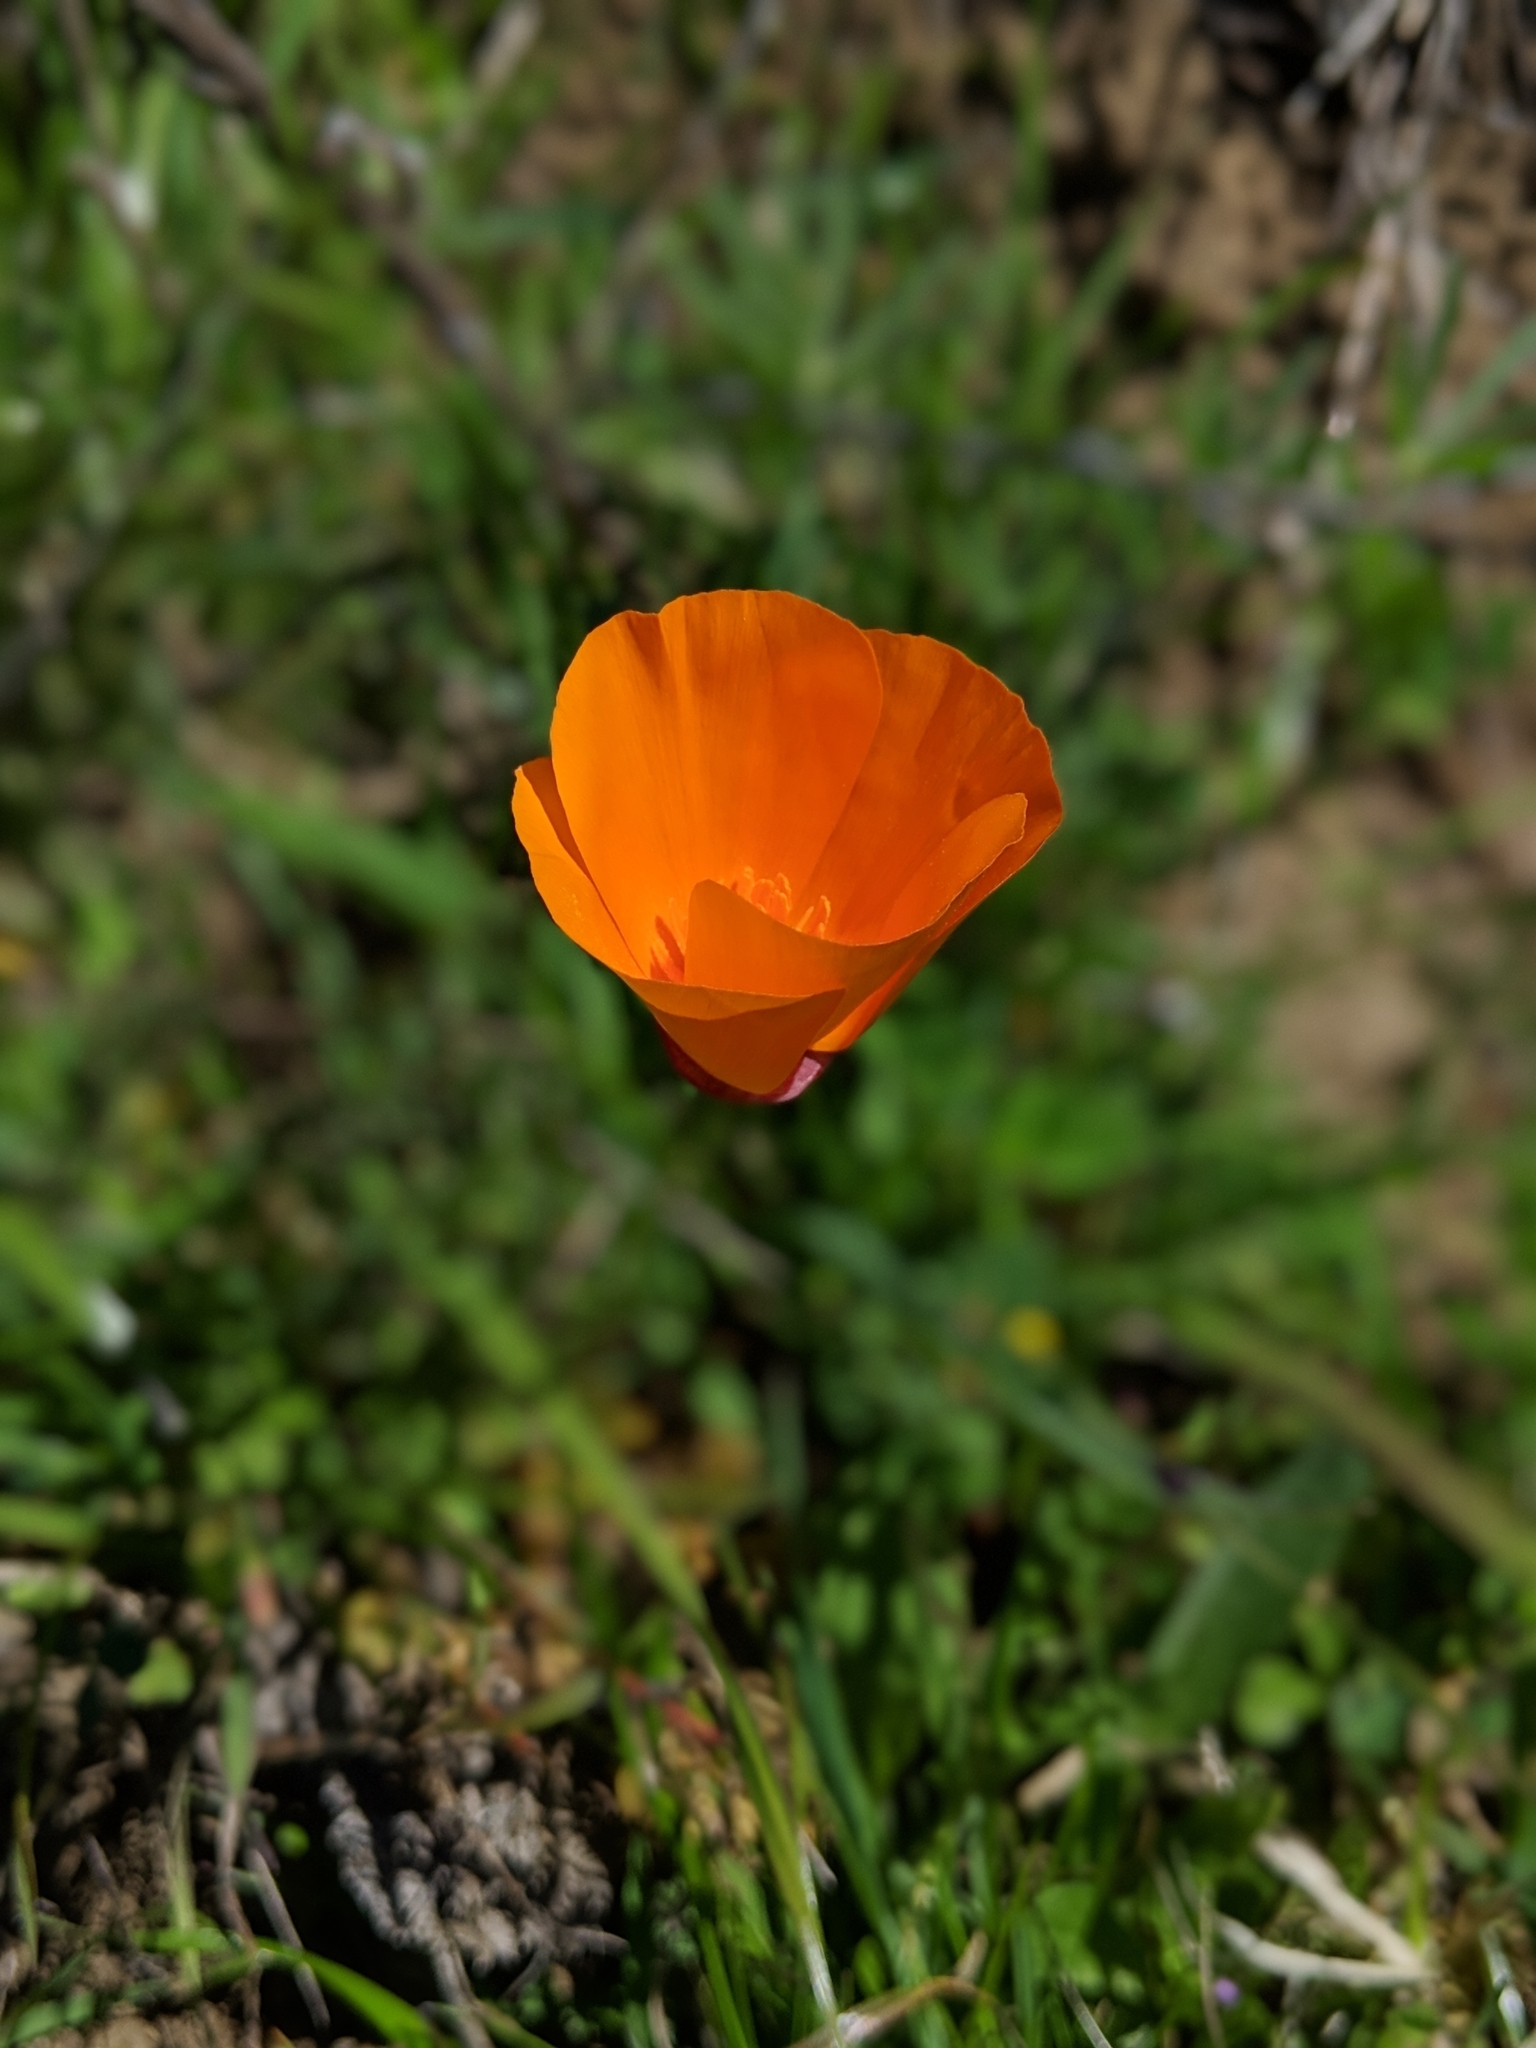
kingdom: Plantae
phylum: Tracheophyta
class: Magnoliopsida
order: Ranunculales
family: Papaveraceae
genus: Eschscholzia
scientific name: Eschscholzia californica
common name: California poppy
